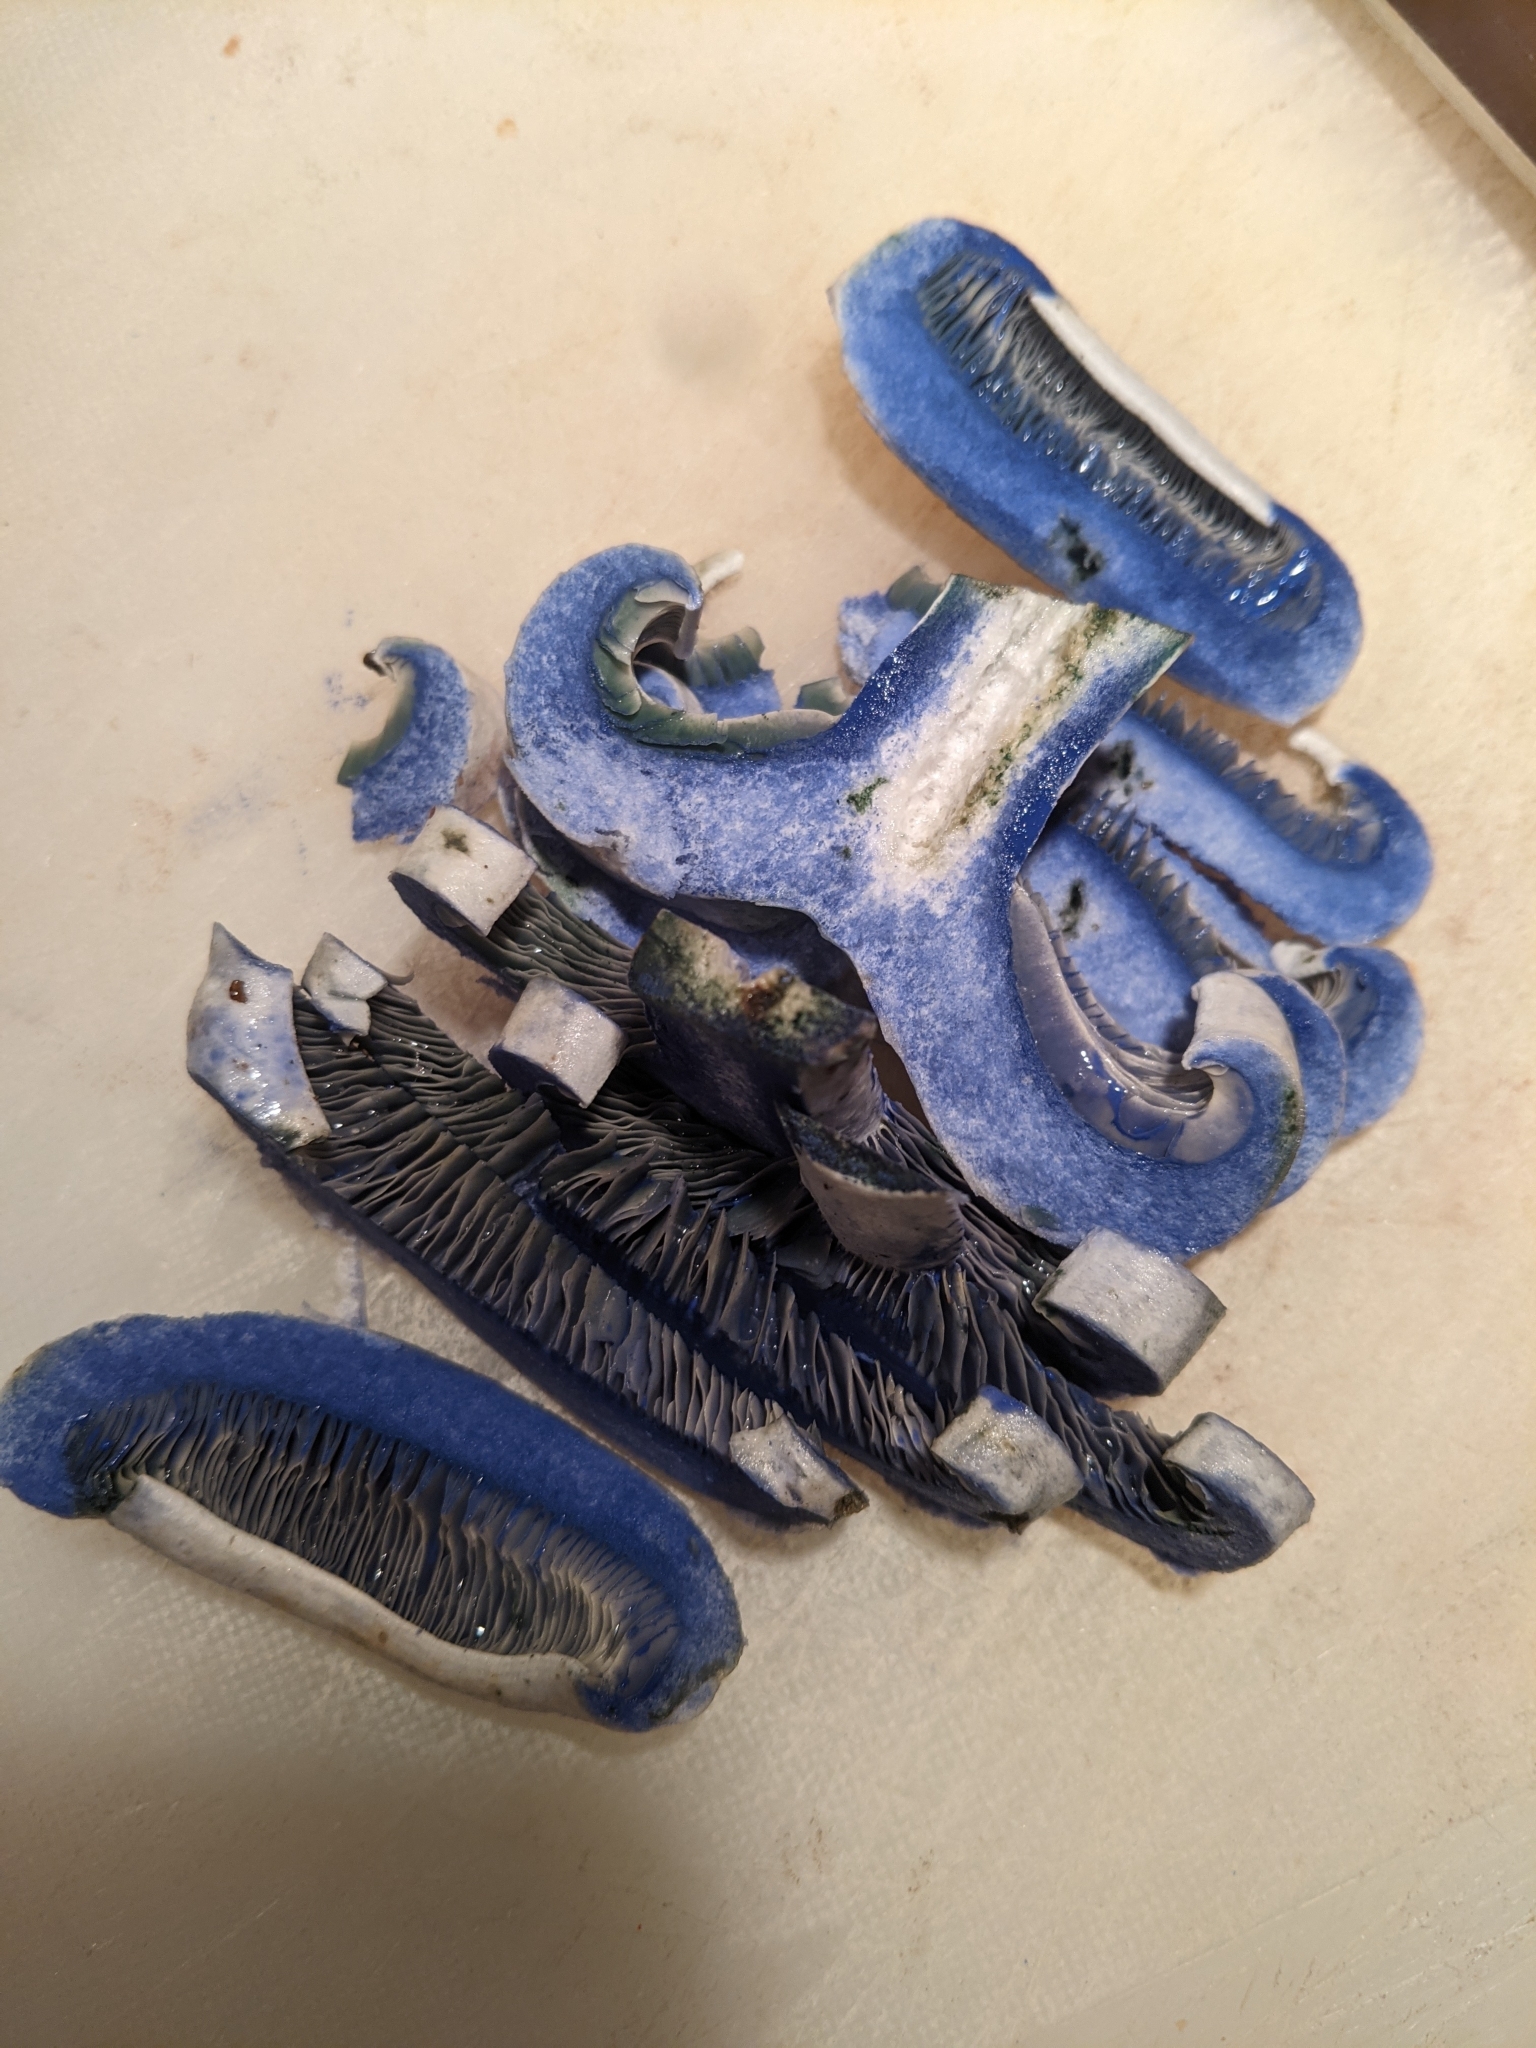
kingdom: Fungi
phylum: Basidiomycota
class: Agaricomycetes
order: Russulales
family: Russulaceae
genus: Lactarius
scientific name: Lactarius indigo
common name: Indigo milk cap
